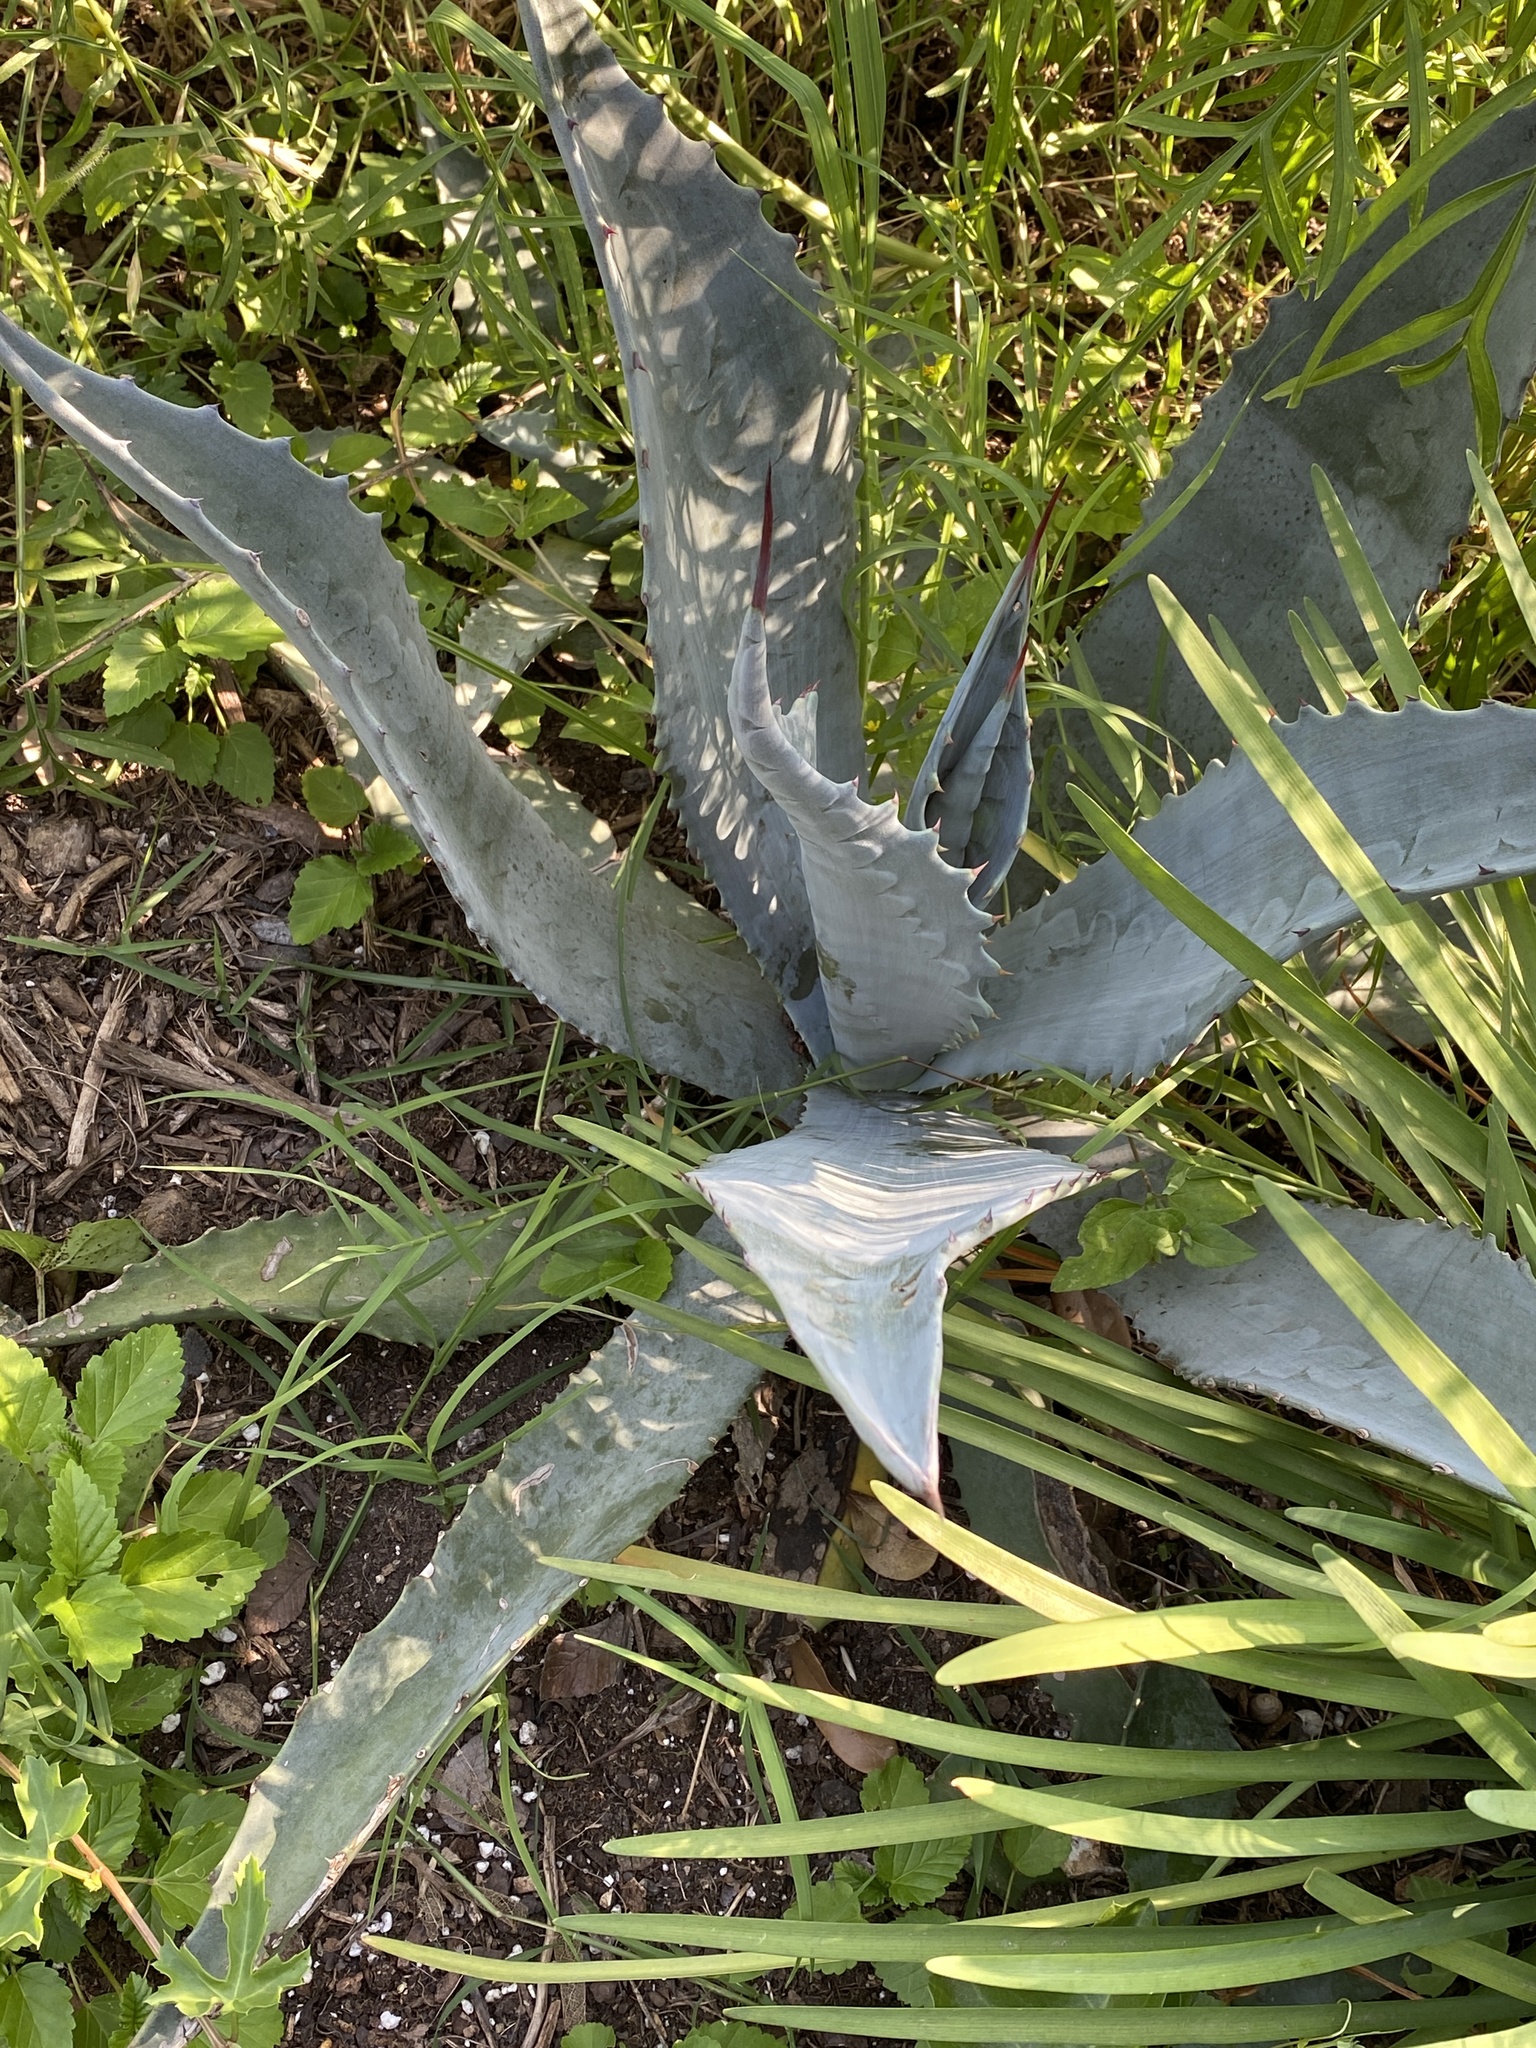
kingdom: Plantae
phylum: Tracheophyta
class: Liliopsida
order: Asparagales
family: Asparagaceae
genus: Agave
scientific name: Agave americana
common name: Centuryplant
